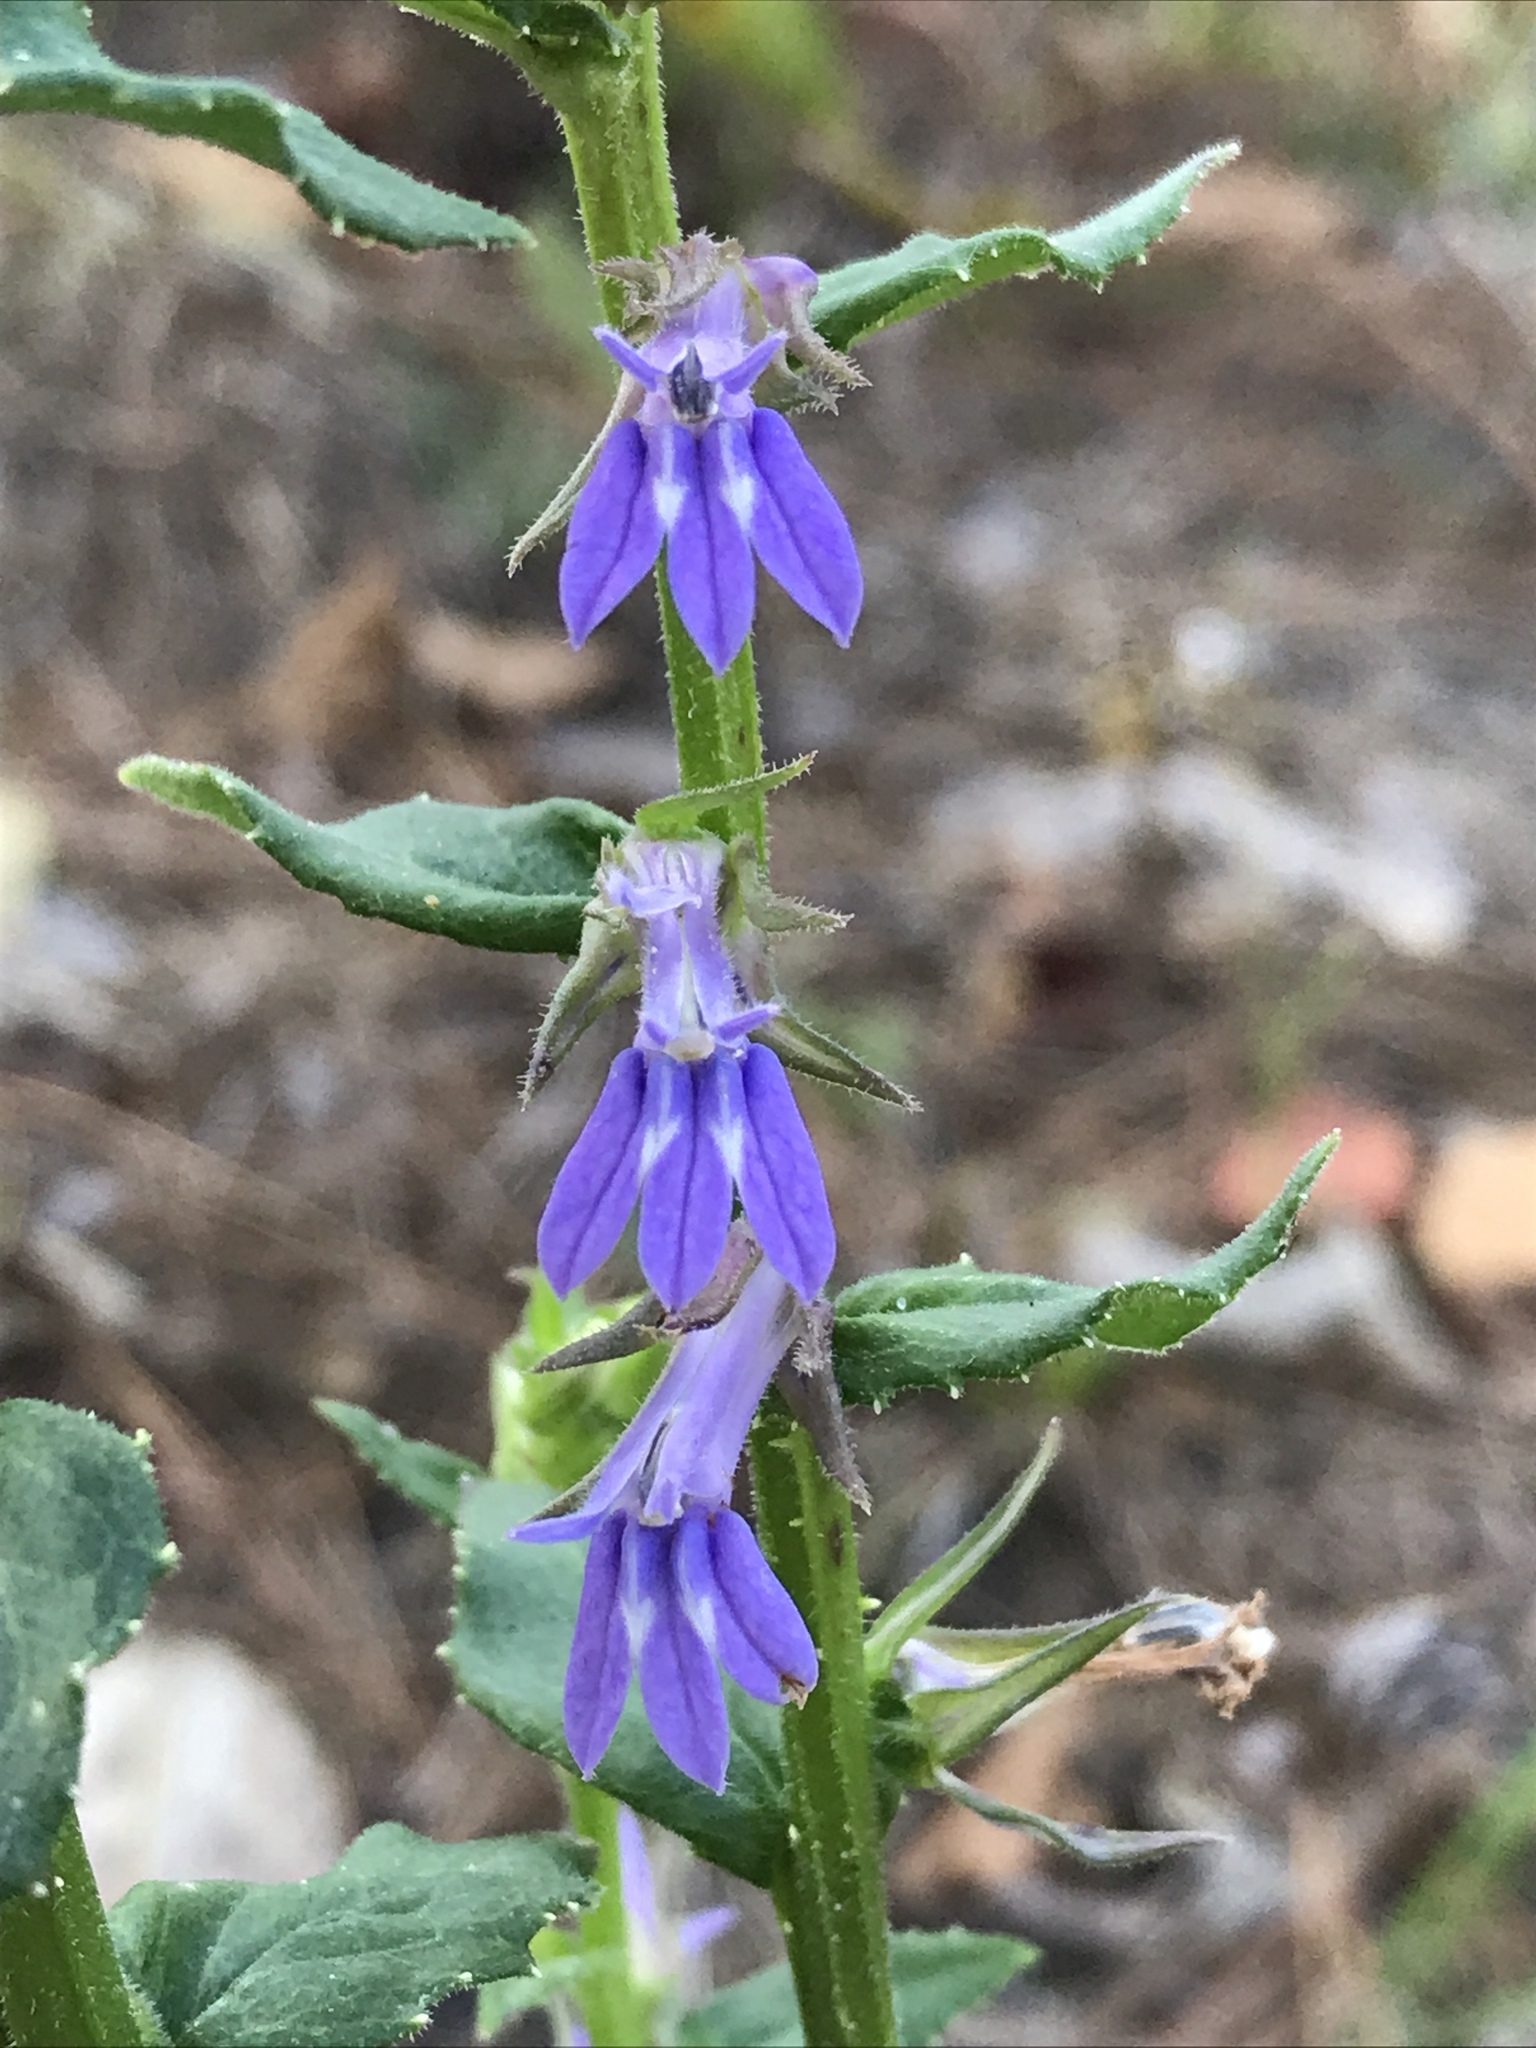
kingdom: Plantae
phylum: Tracheophyta
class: Magnoliopsida
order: Asterales
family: Campanulaceae
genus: Lobelia
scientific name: Lobelia puberula
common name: Purple dewdrop
